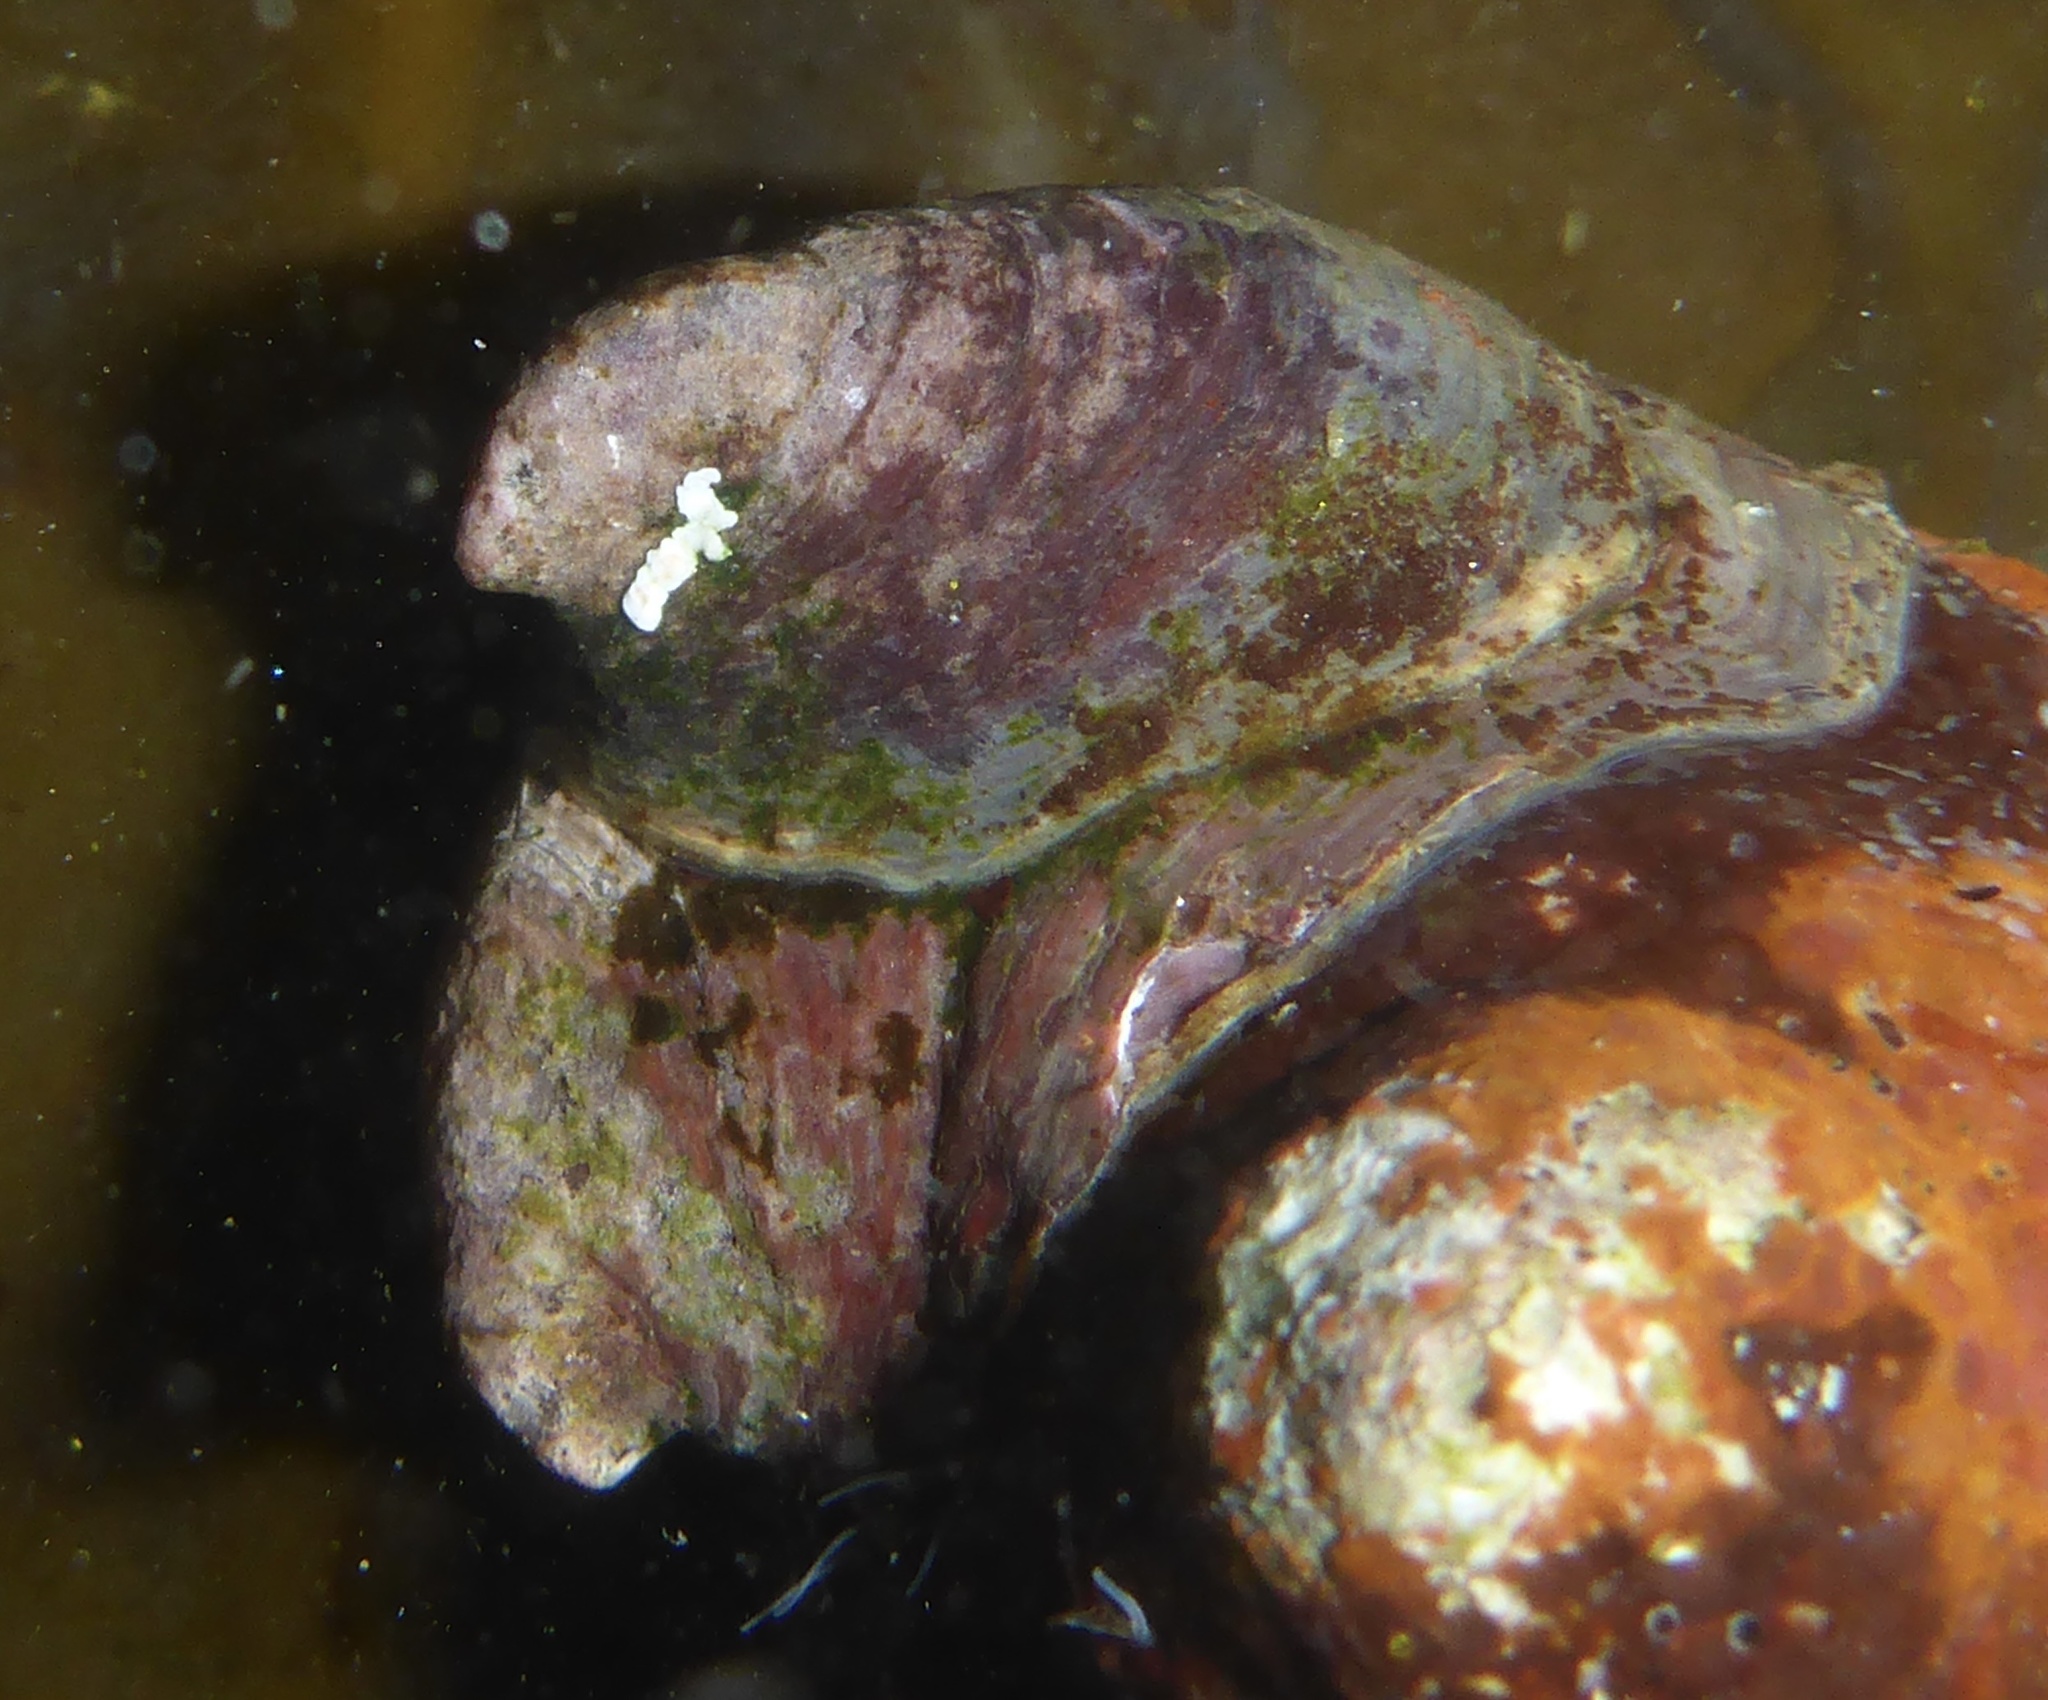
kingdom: Animalia
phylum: Mollusca
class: Gastropoda
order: Littorinimorpha
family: Calyptraeidae
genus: Crepidula
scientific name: Crepidula adunca
